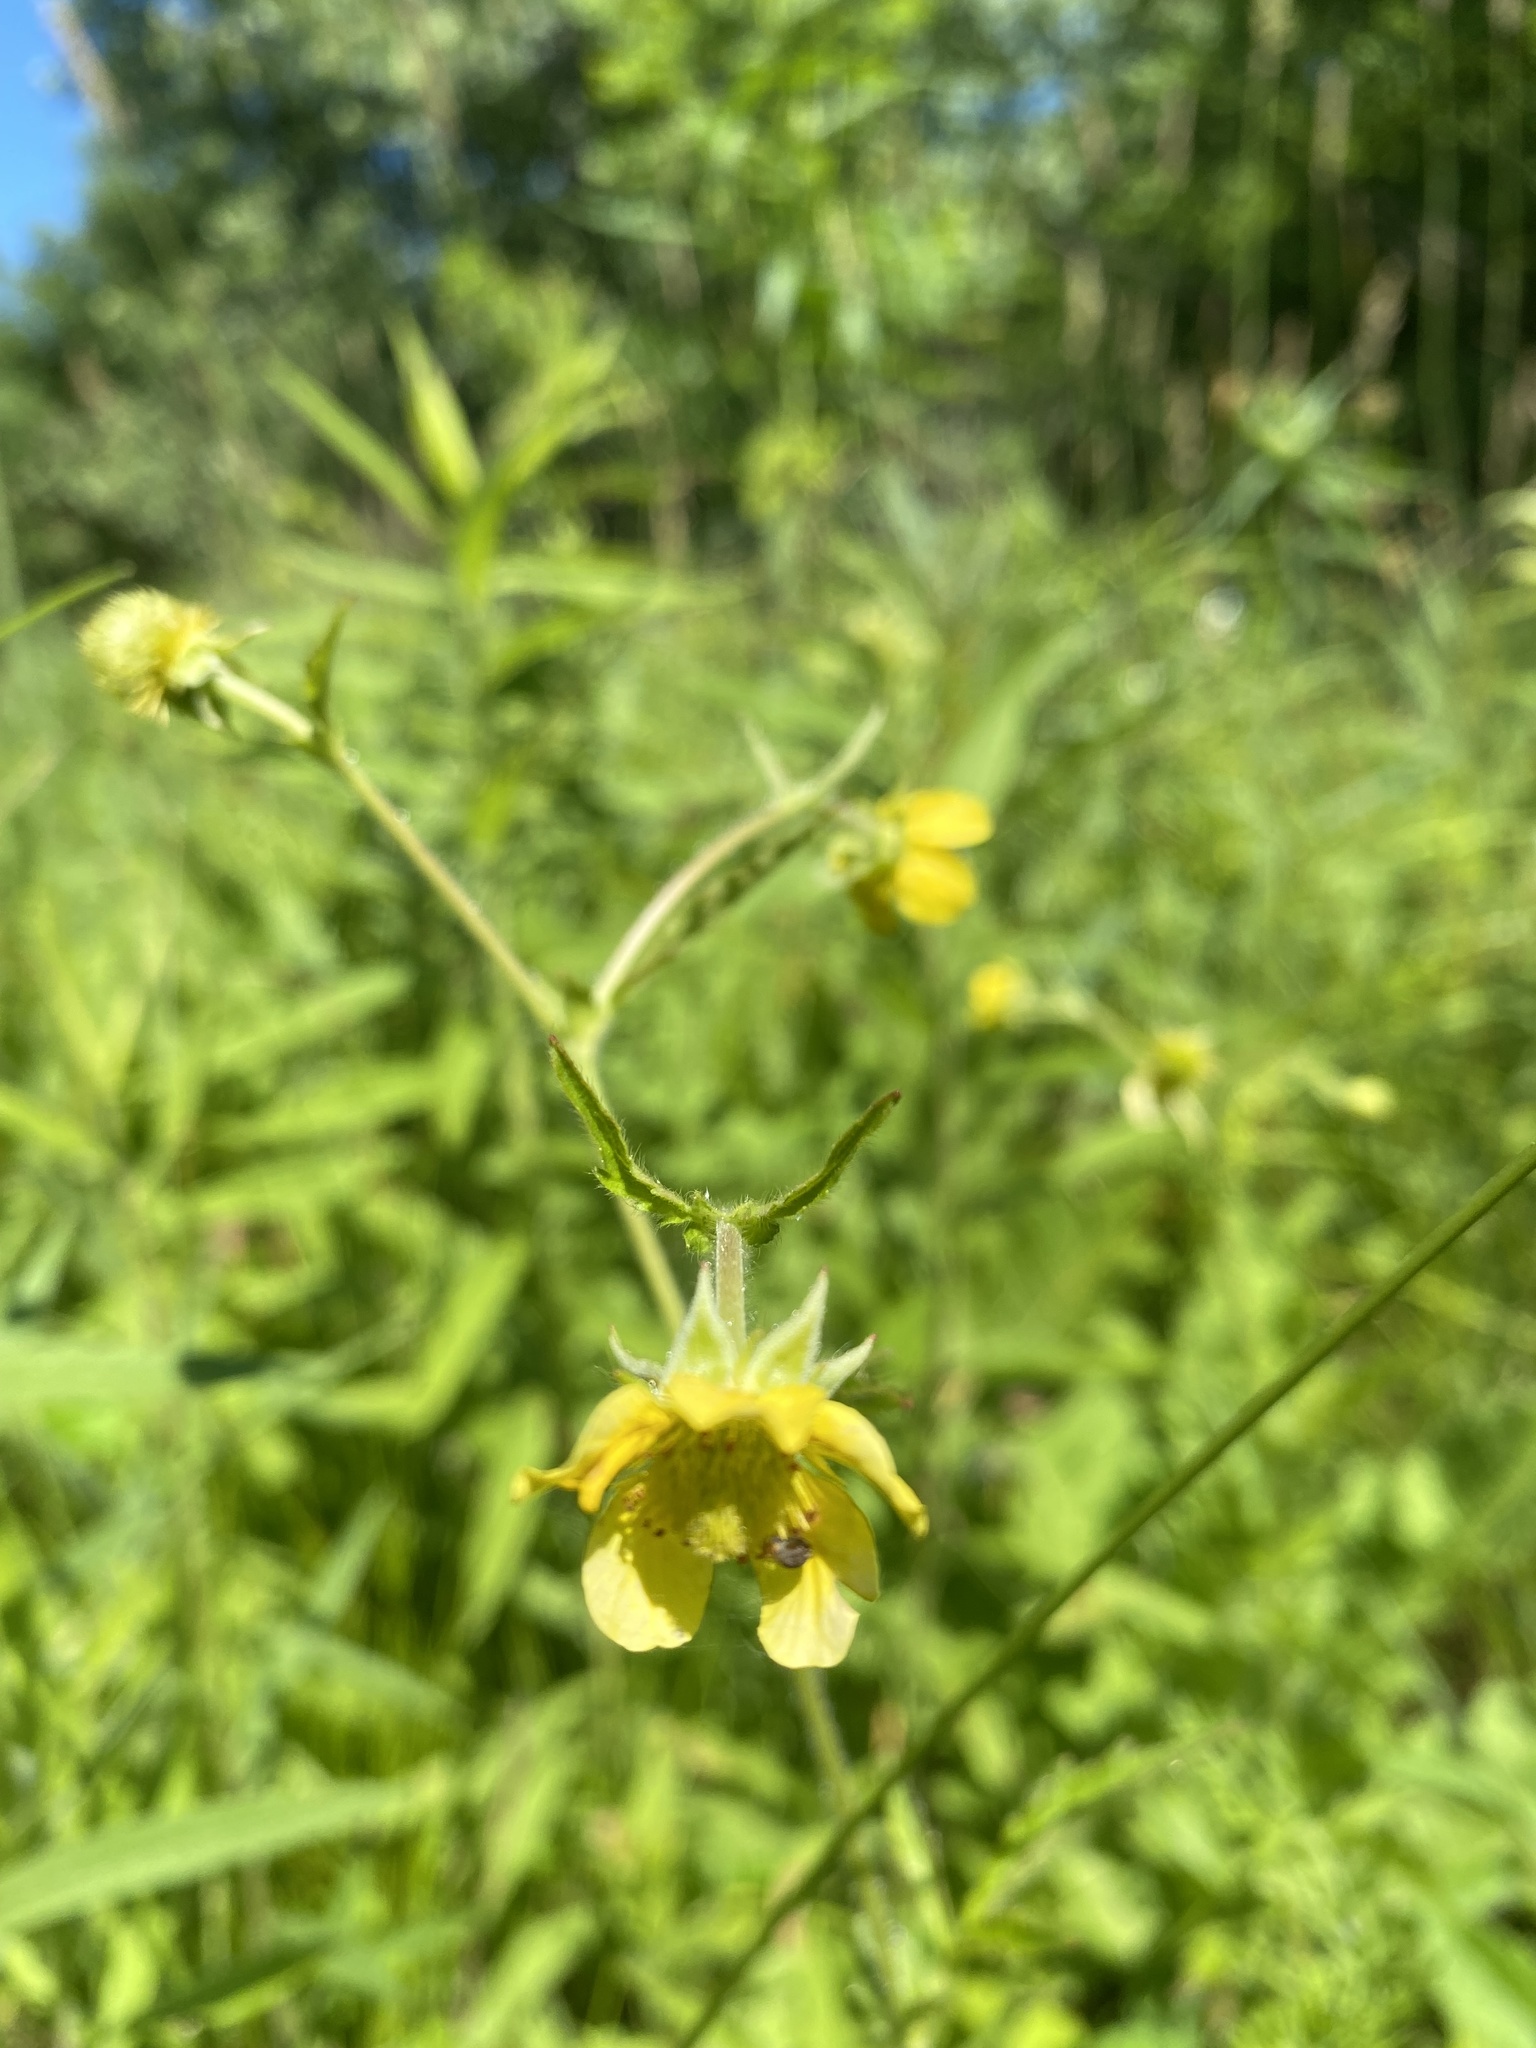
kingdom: Plantae
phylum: Tracheophyta
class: Magnoliopsida
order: Rosales
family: Rosaceae
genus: Geum
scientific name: Geum aleppicum
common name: Yellow avens
